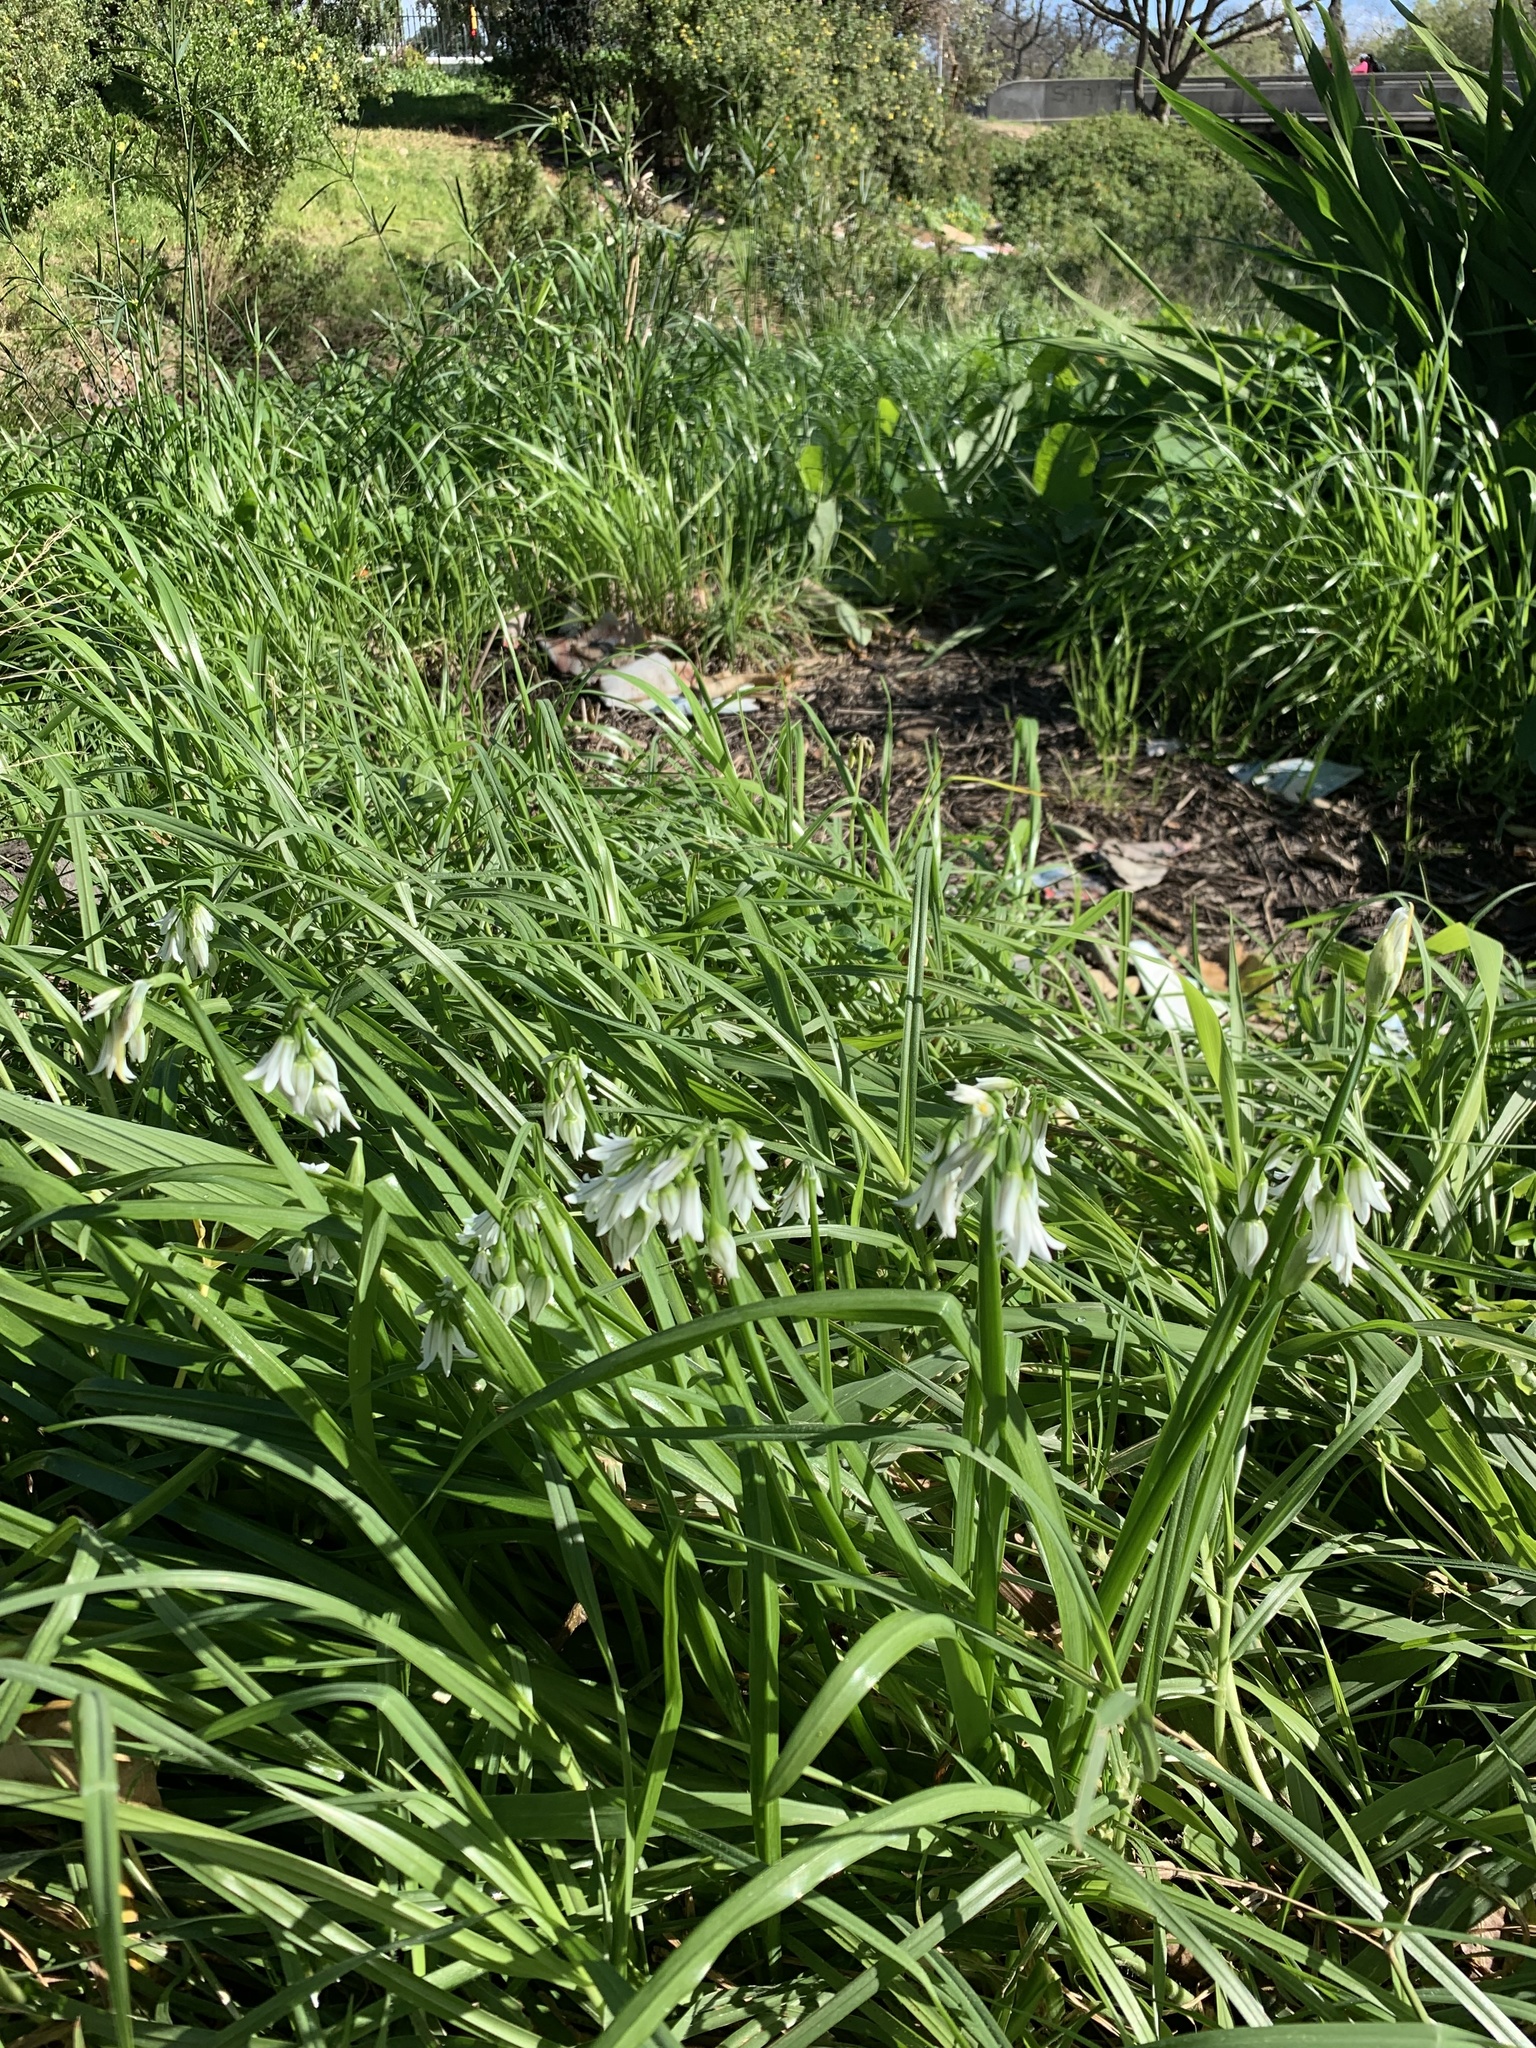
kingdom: Plantae
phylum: Tracheophyta
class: Liliopsida
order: Asparagales
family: Amaryllidaceae
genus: Allium
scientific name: Allium triquetrum
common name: Three-cornered garlic
